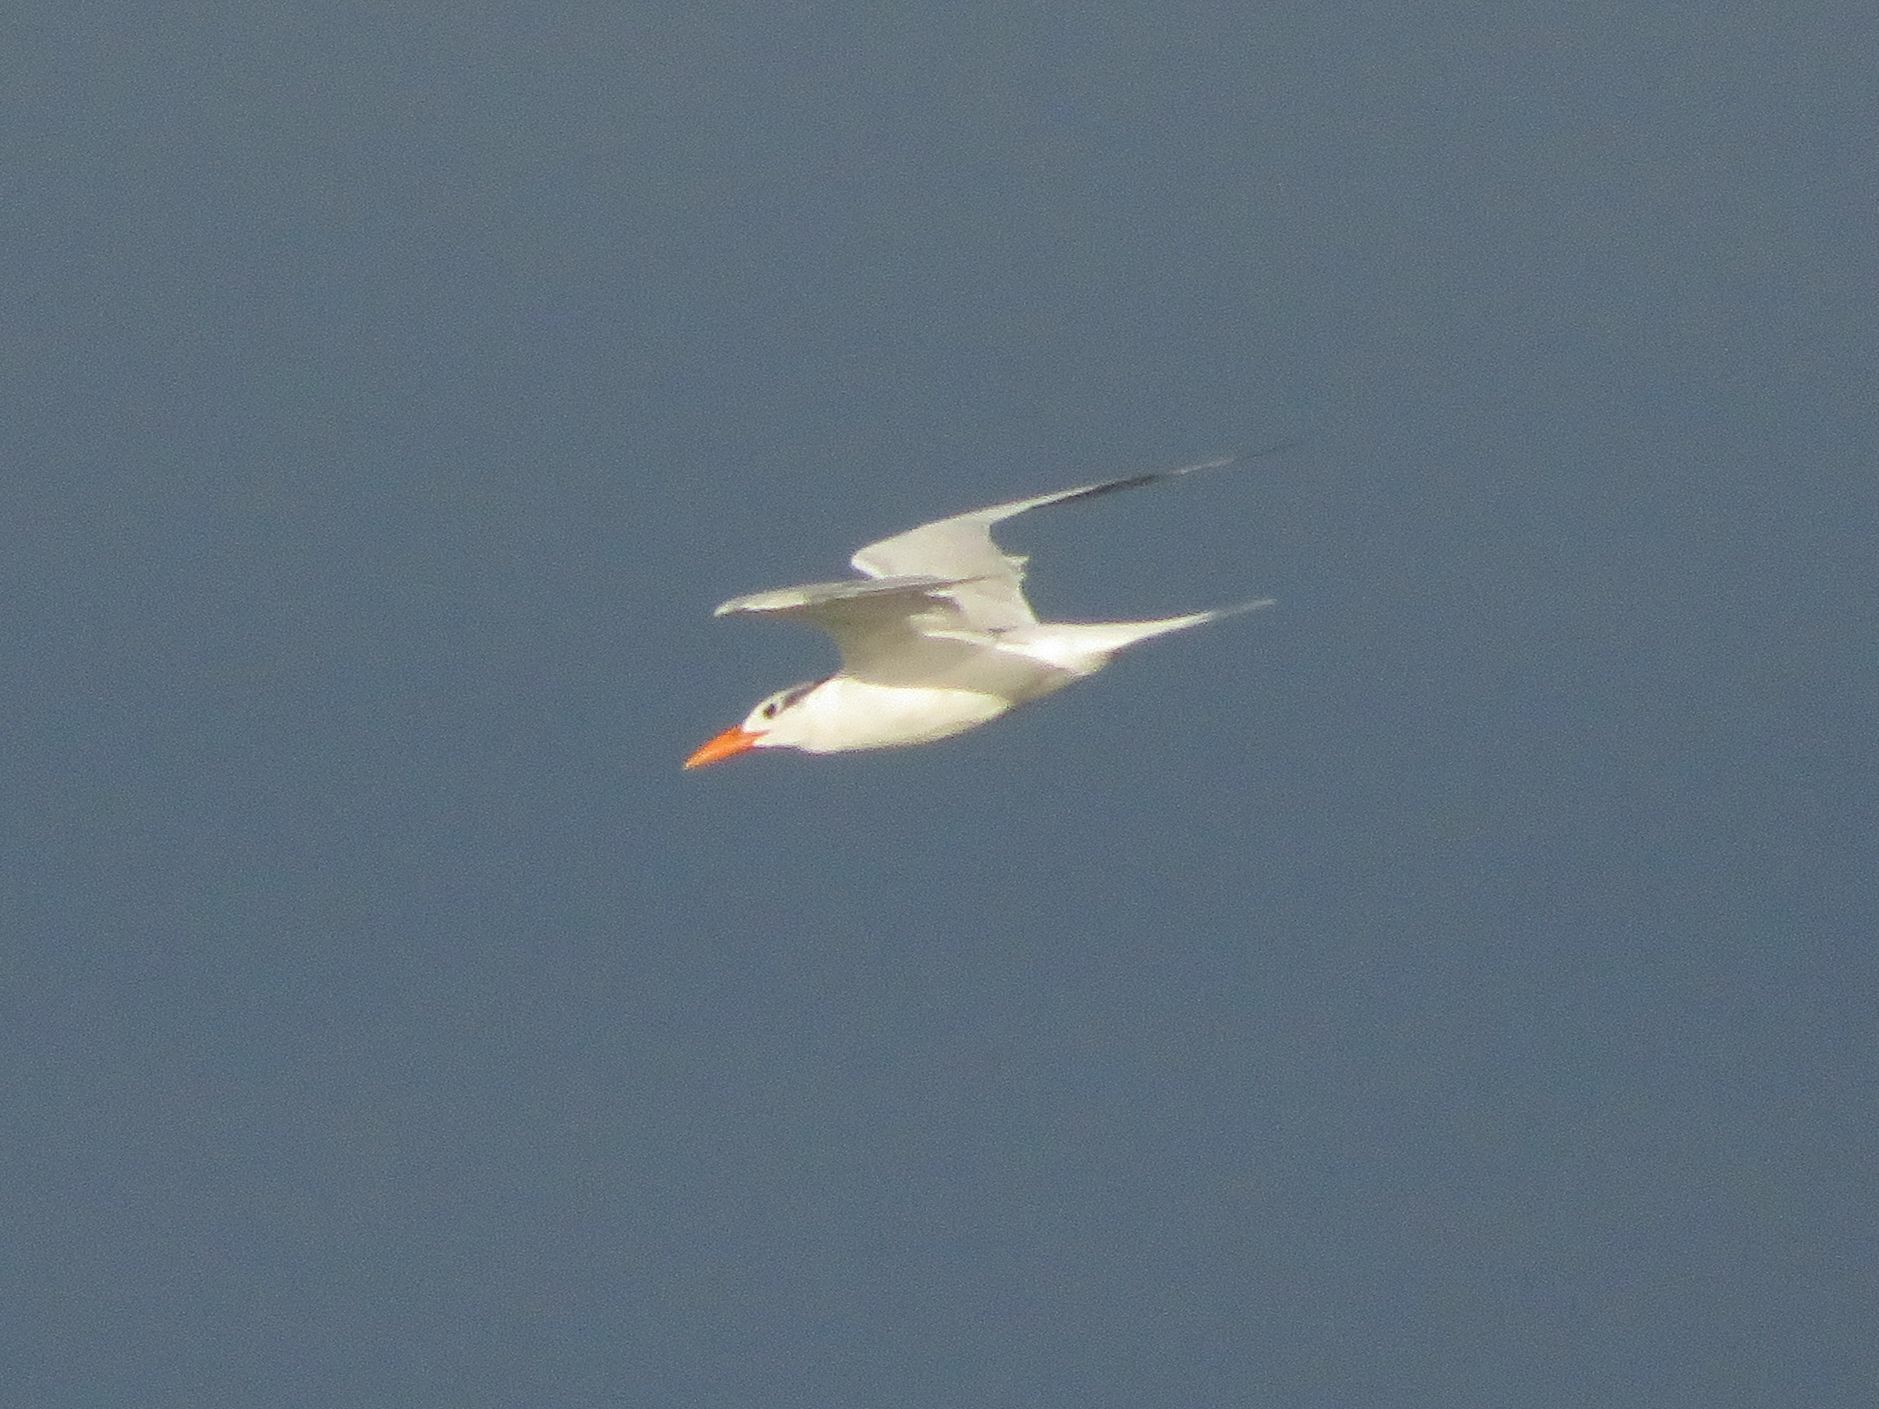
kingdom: Animalia
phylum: Chordata
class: Aves
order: Charadriiformes
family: Laridae
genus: Thalasseus
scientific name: Thalasseus maximus
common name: Royal tern
